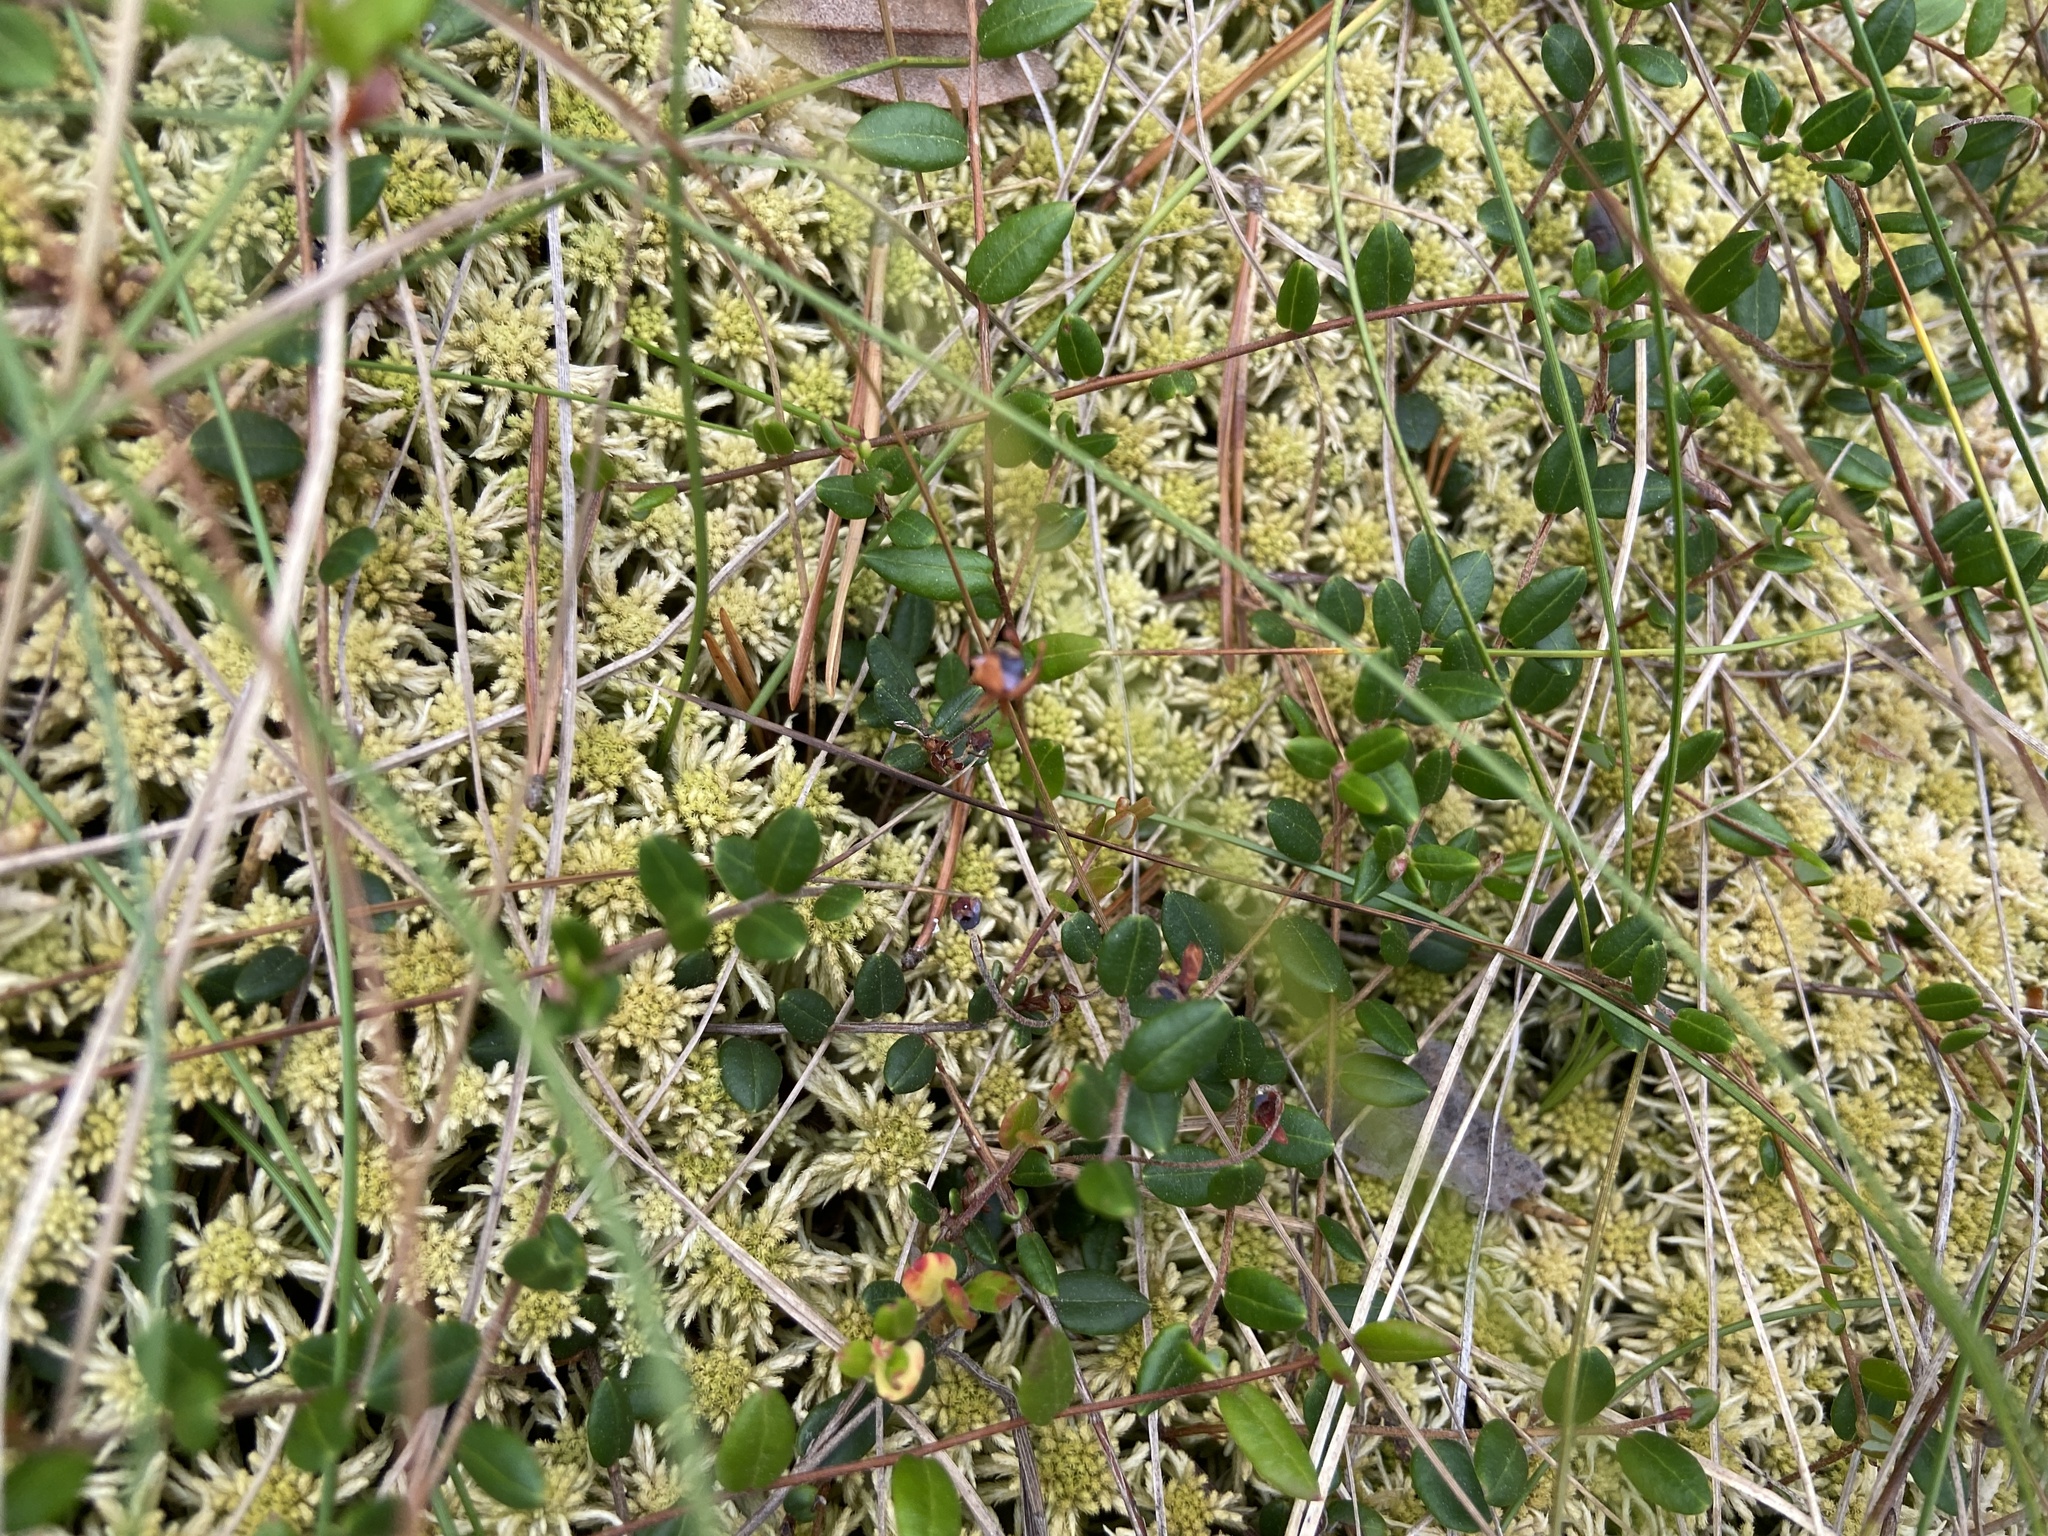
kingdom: Plantae
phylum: Tracheophyta
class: Magnoliopsida
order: Ericales
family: Ericaceae
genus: Vaccinium
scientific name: Vaccinium oxycoccos
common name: Cranberry
